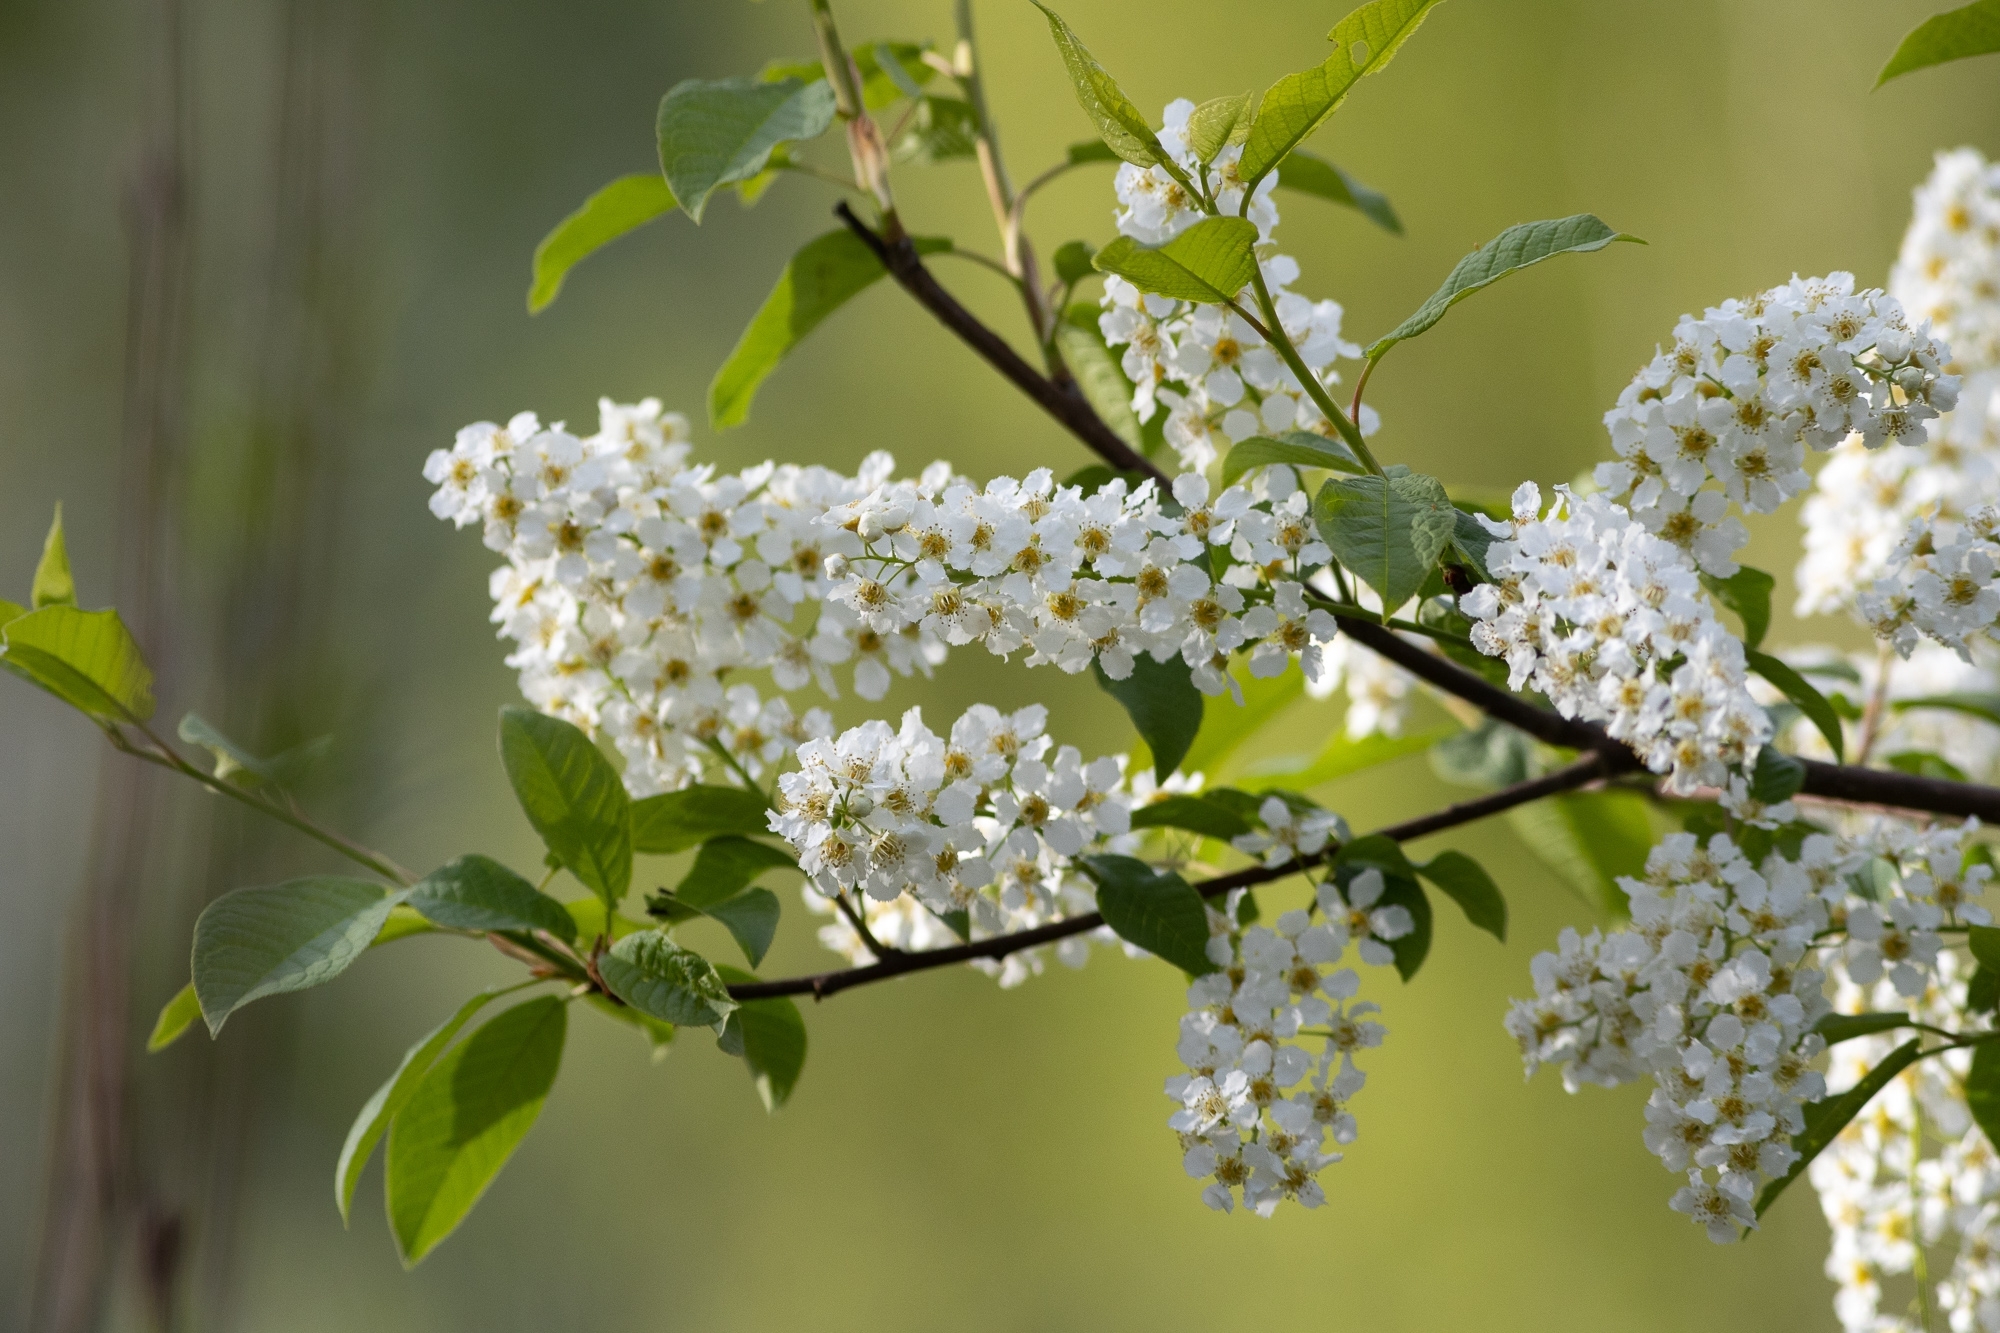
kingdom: Plantae
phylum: Tracheophyta
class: Magnoliopsida
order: Rosales
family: Rosaceae
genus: Prunus
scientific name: Prunus padus
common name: Bird cherry
